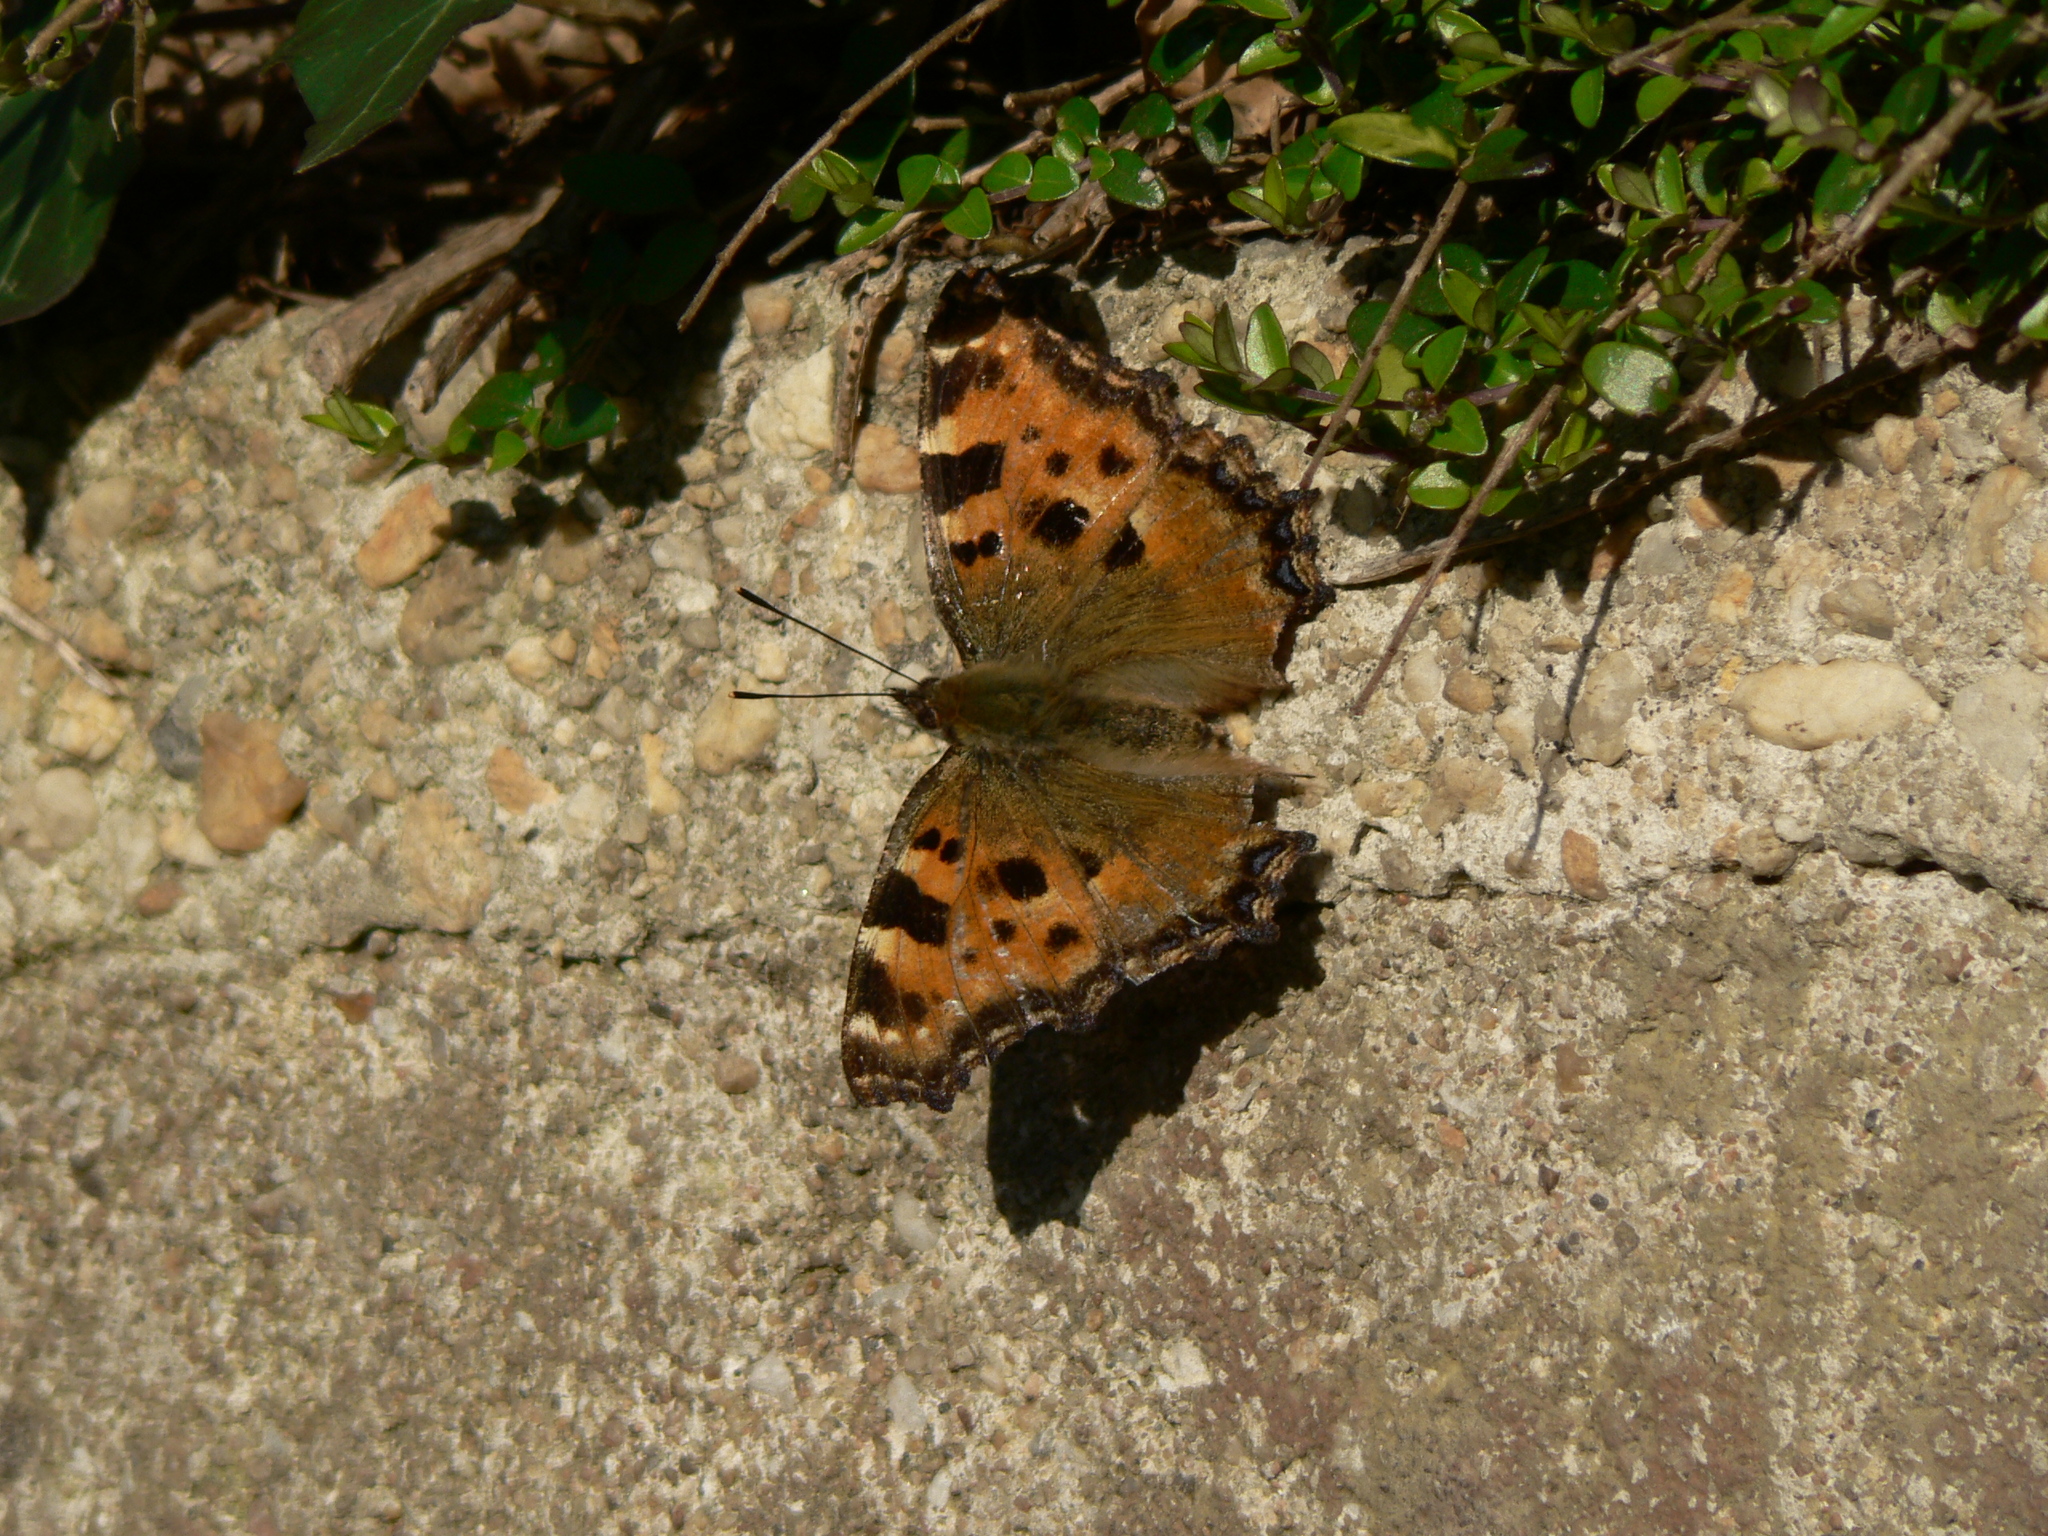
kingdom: Animalia
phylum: Arthropoda
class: Insecta
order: Lepidoptera
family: Nymphalidae
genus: Nymphalis
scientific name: Nymphalis polychloros
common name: Large tortoiseshell
